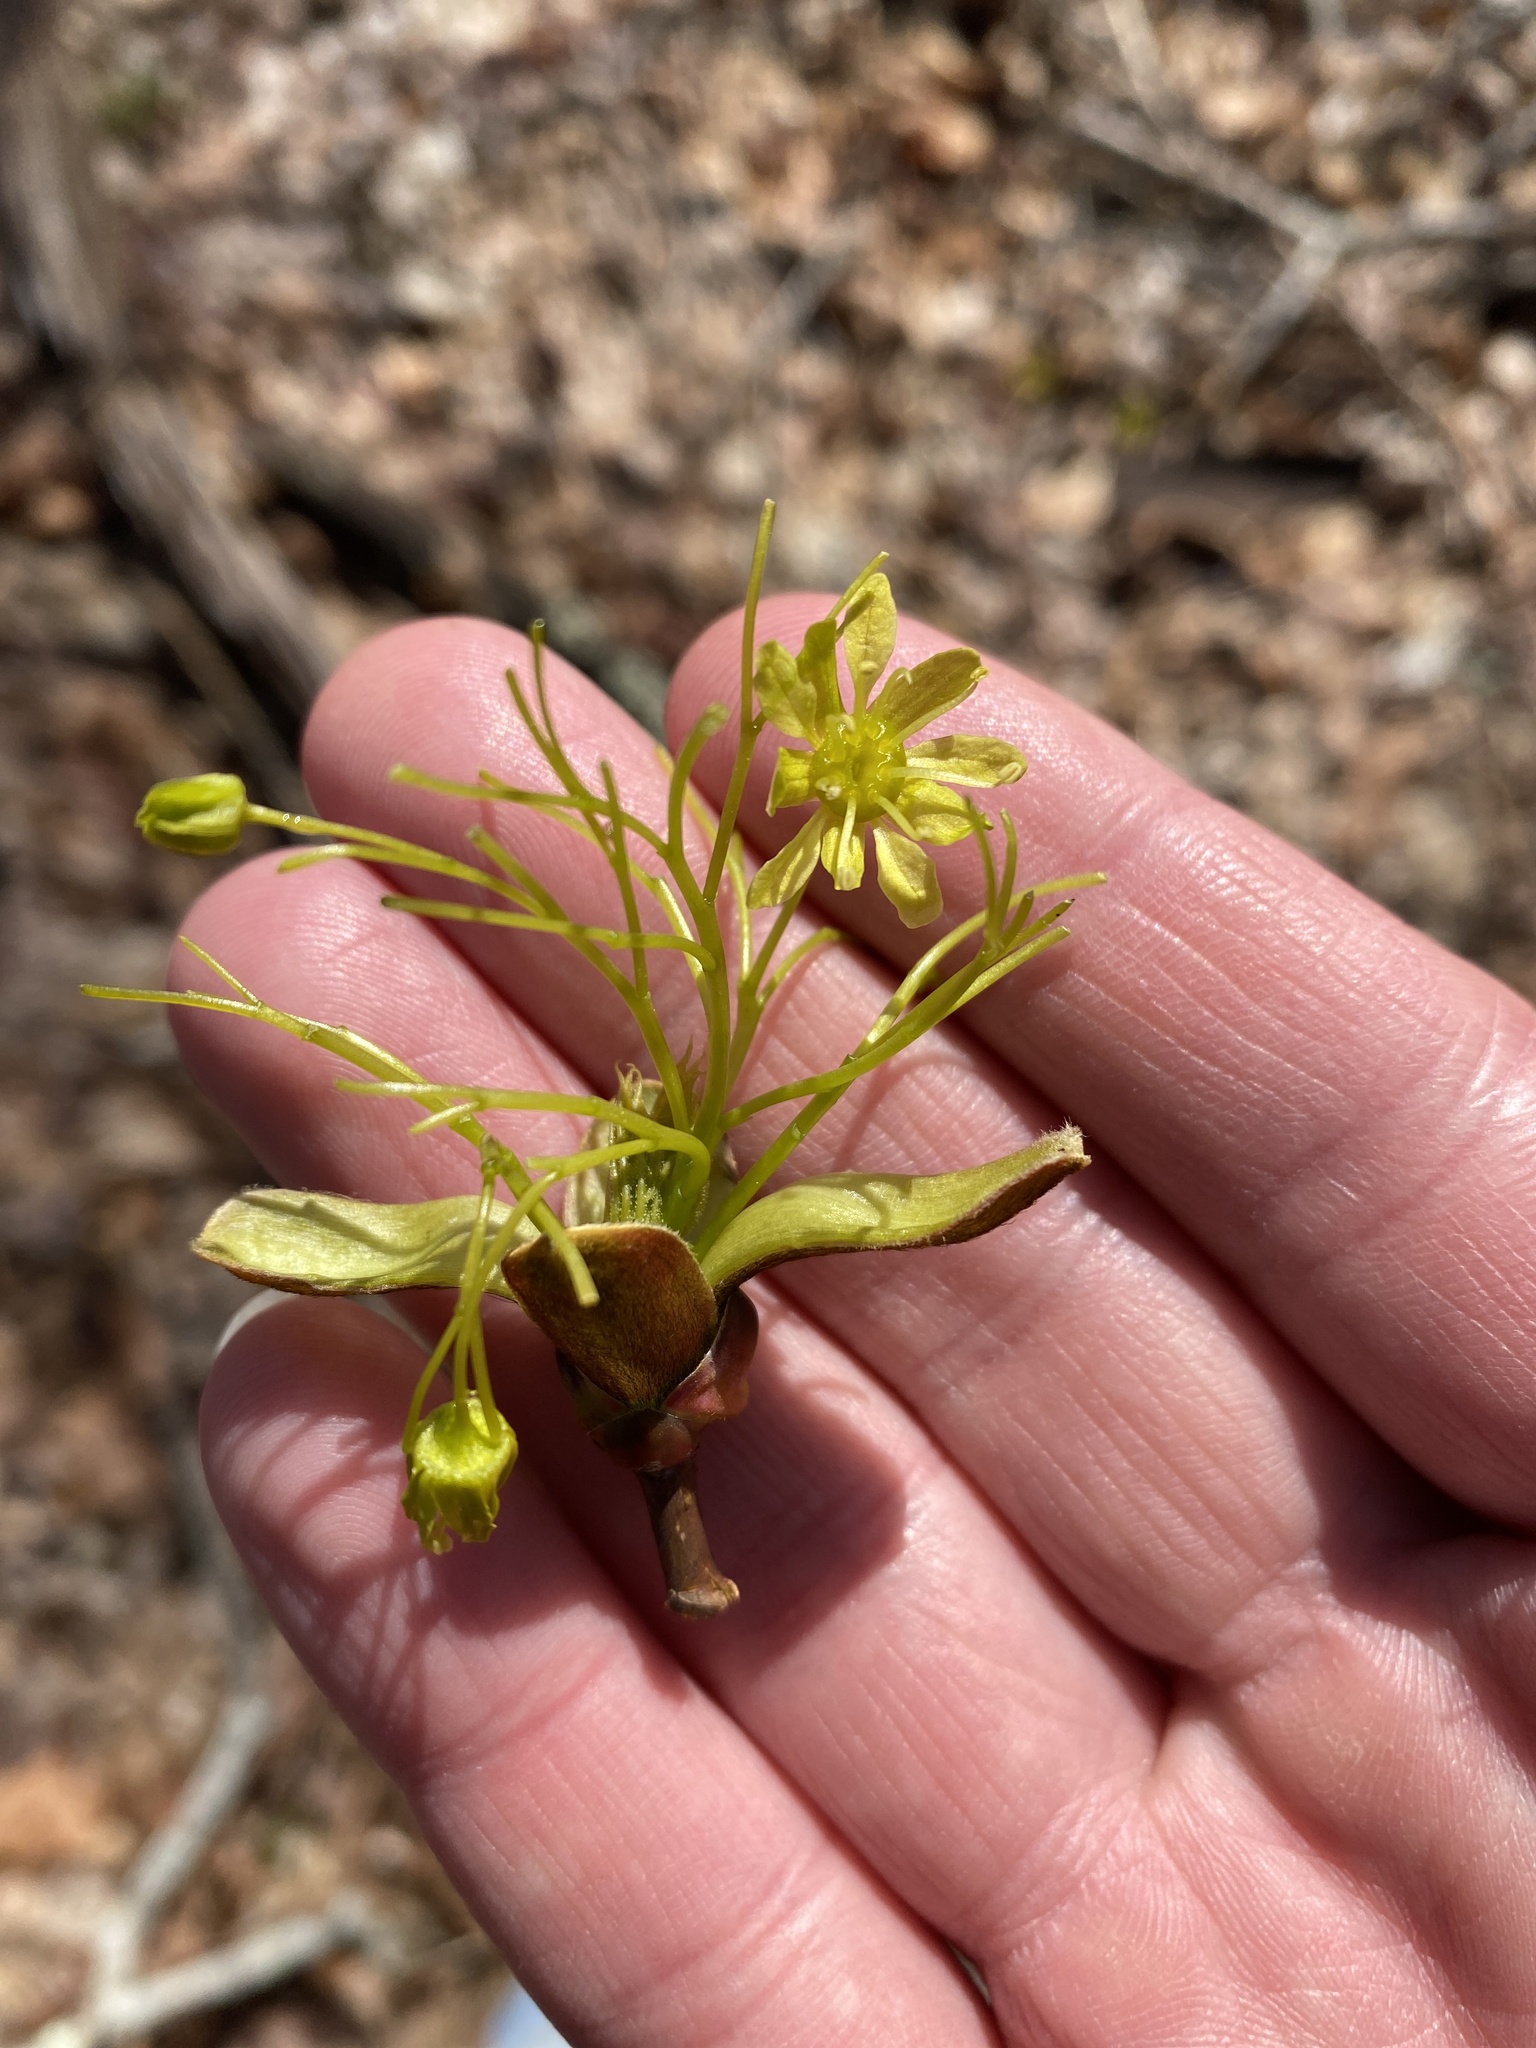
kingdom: Plantae
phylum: Tracheophyta
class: Magnoliopsida
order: Sapindales
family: Sapindaceae
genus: Acer
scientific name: Acer platanoides
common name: Norway maple
